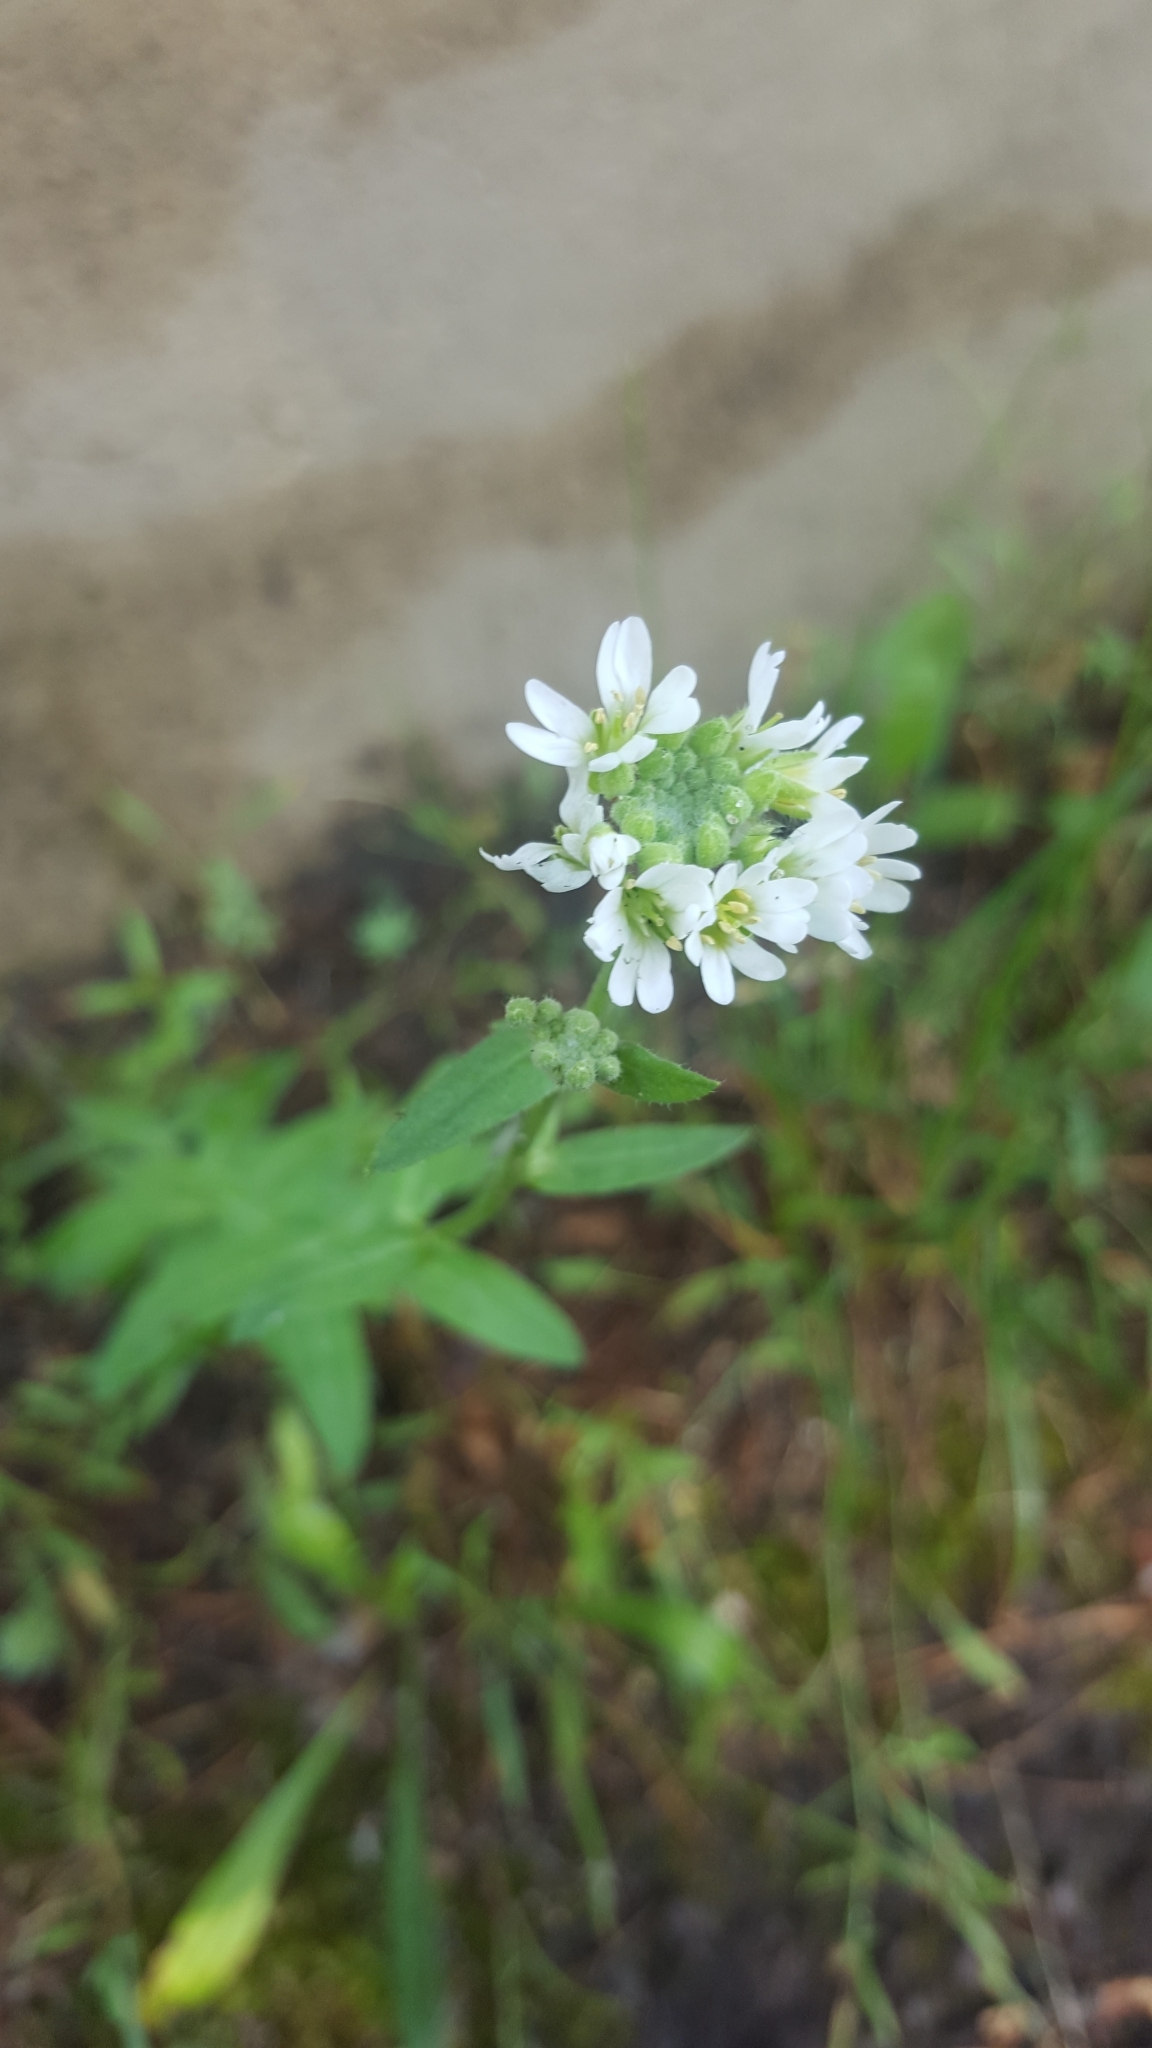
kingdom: Plantae
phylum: Tracheophyta
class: Magnoliopsida
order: Brassicales
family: Brassicaceae
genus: Berteroa
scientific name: Berteroa incana
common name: Hoary alison
